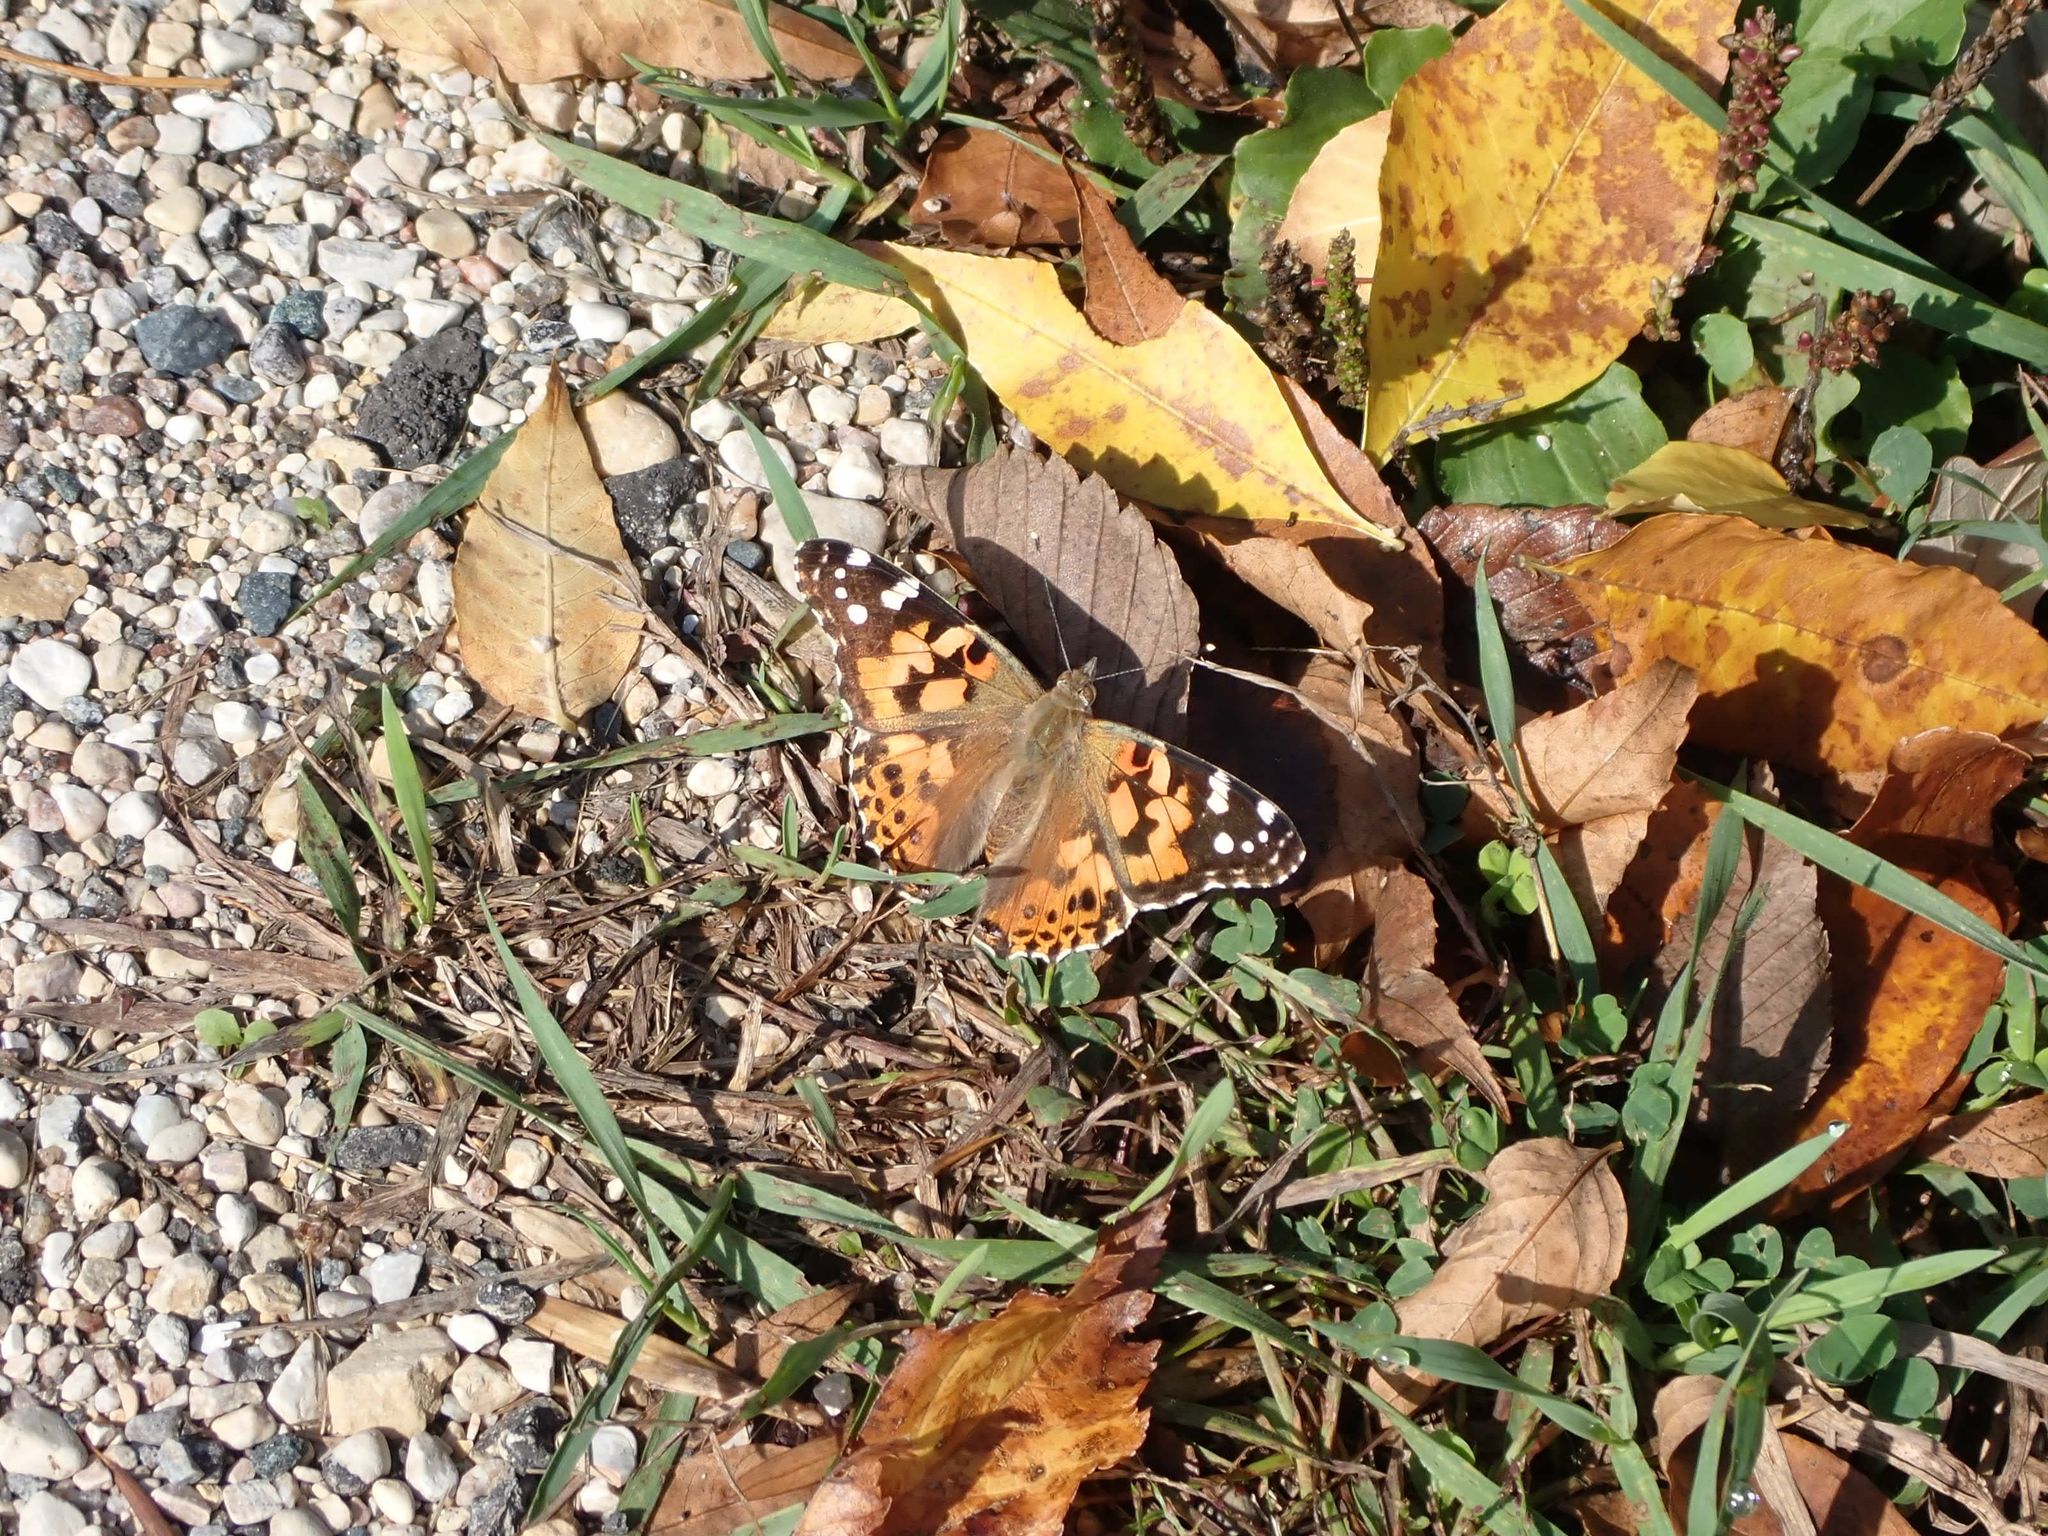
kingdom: Animalia
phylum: Arthropoda
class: Insecta
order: Lepidoptera
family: Nymphalidae
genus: Vanessa
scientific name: Vanessa cardui
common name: Painted lady
